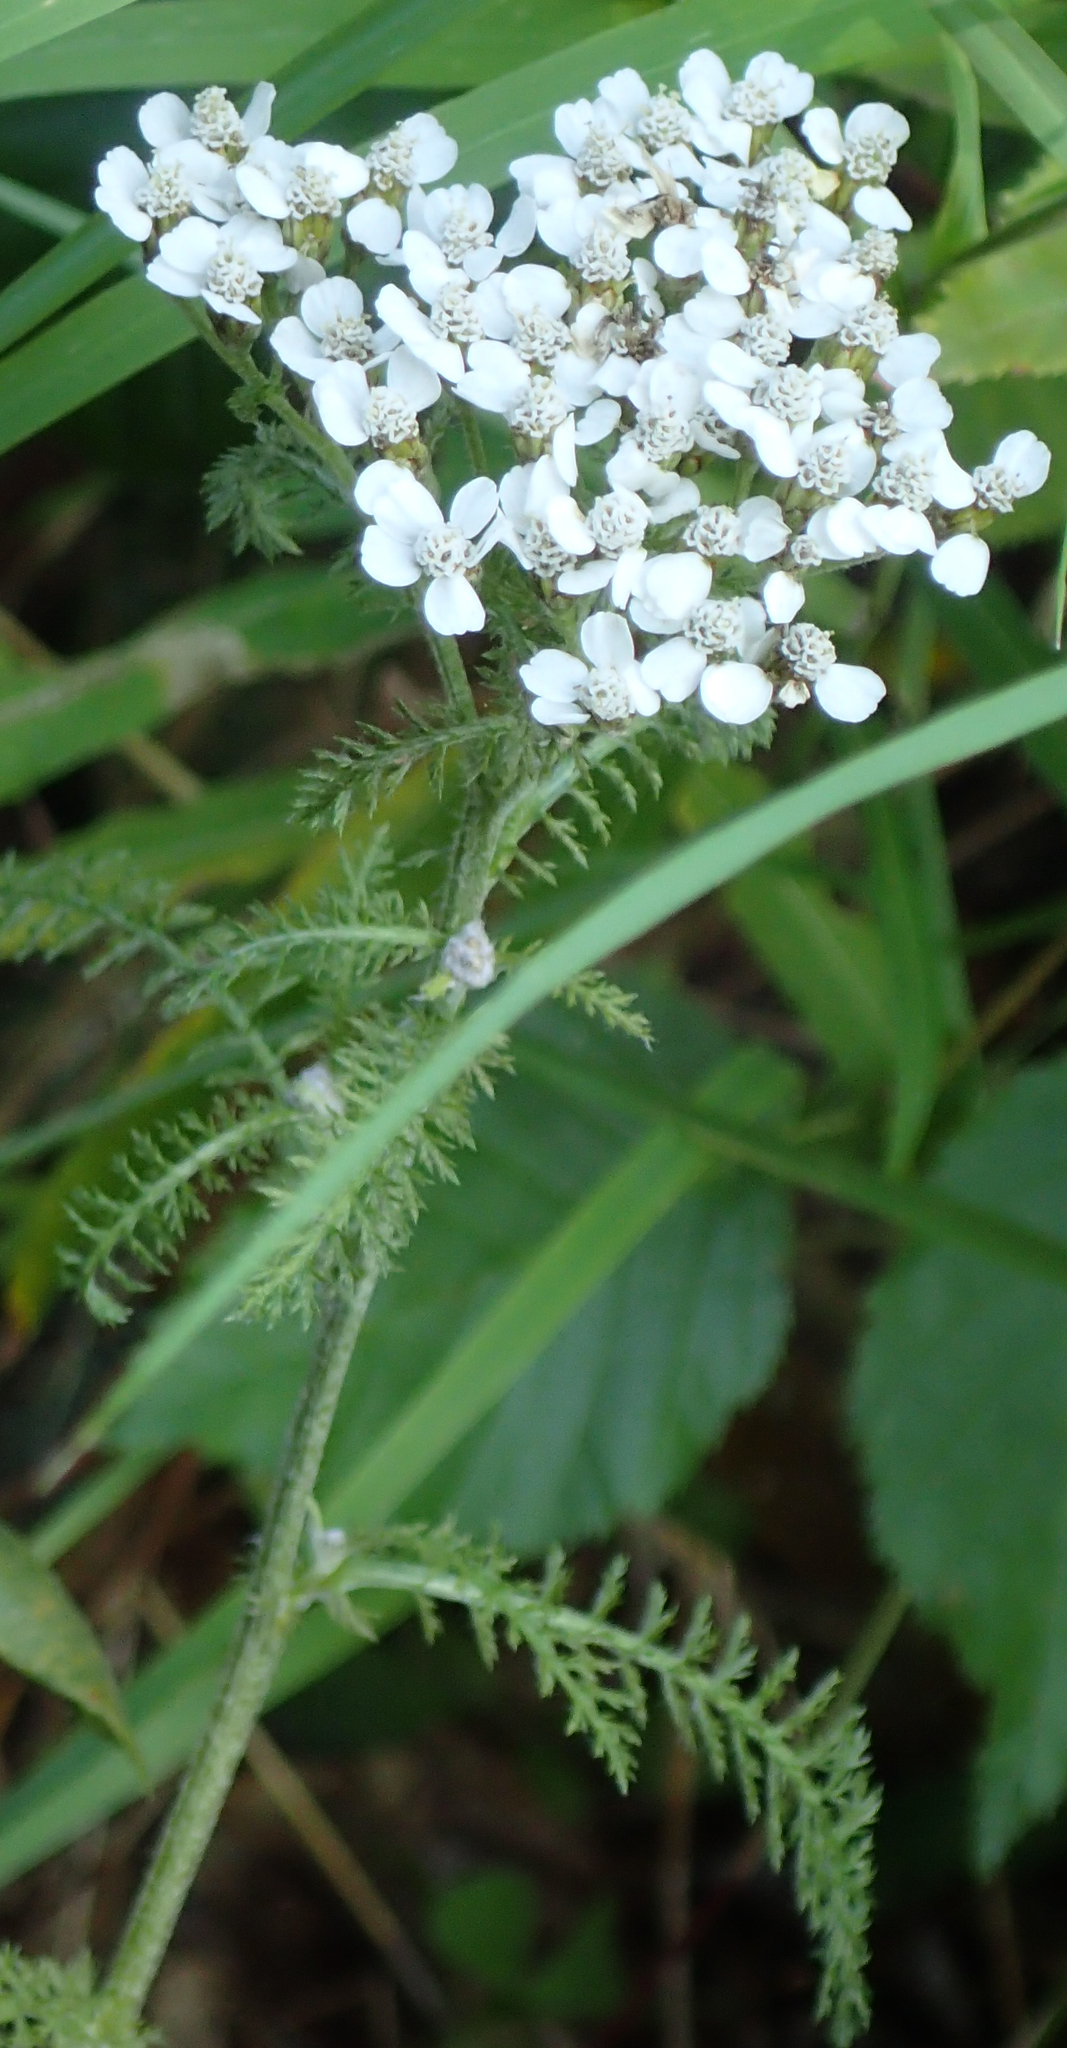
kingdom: Plantae
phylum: Tracheophyta
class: Magnoliopsida
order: Asterales
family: Asteraceae
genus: Achillea
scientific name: Achillea millefolium
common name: Yarrow
